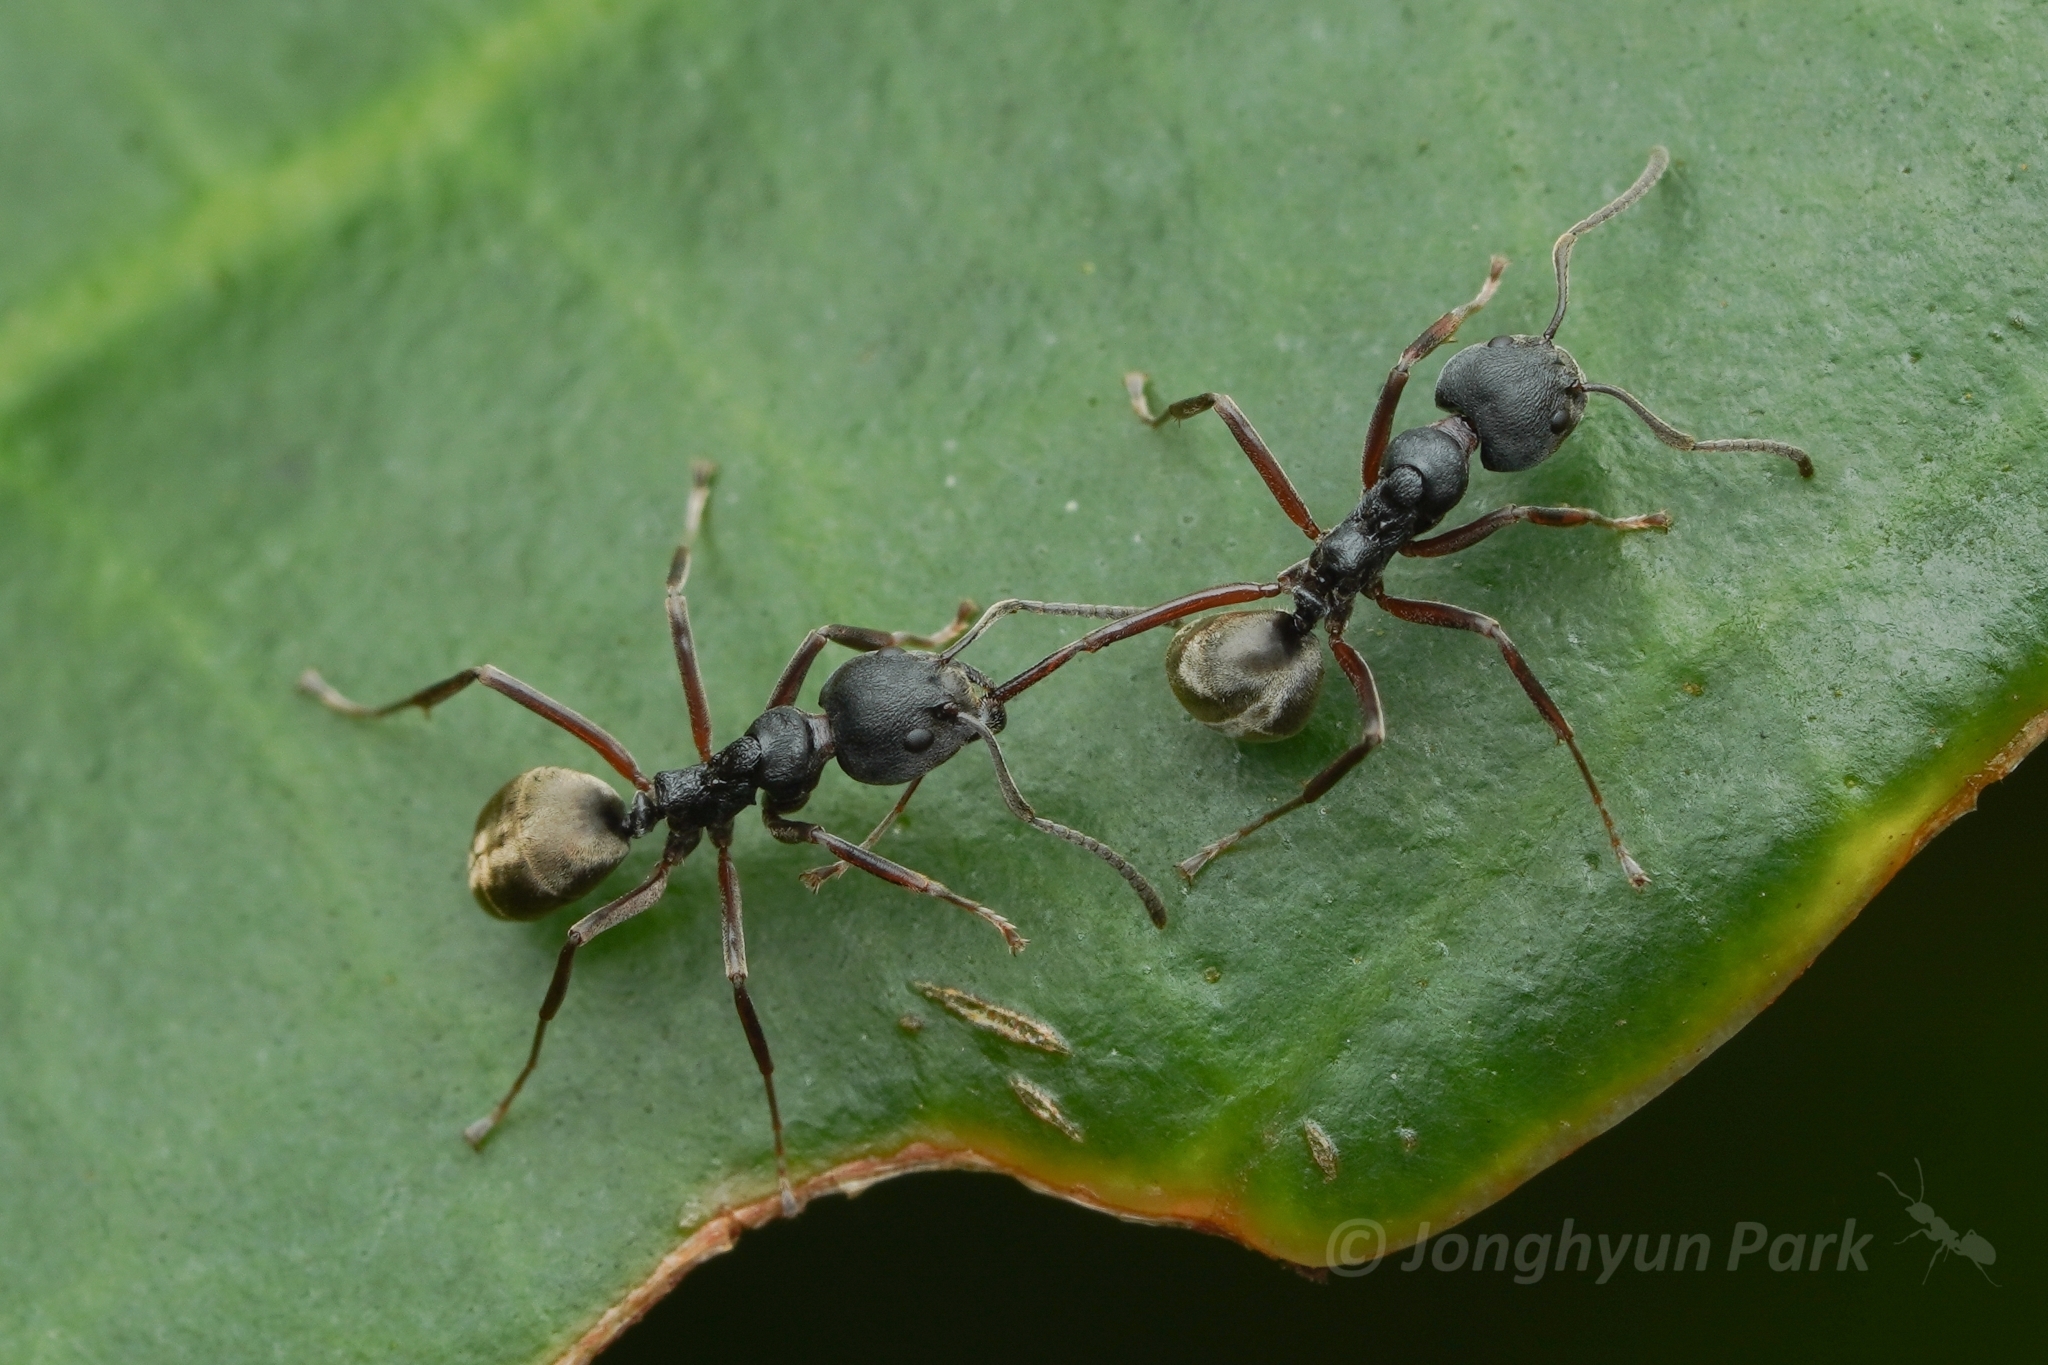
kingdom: Animalia
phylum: Arthropoda
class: Insecta
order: Hymenoptera
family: Formicidae
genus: Dolichoderus
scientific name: Dolichoderus
